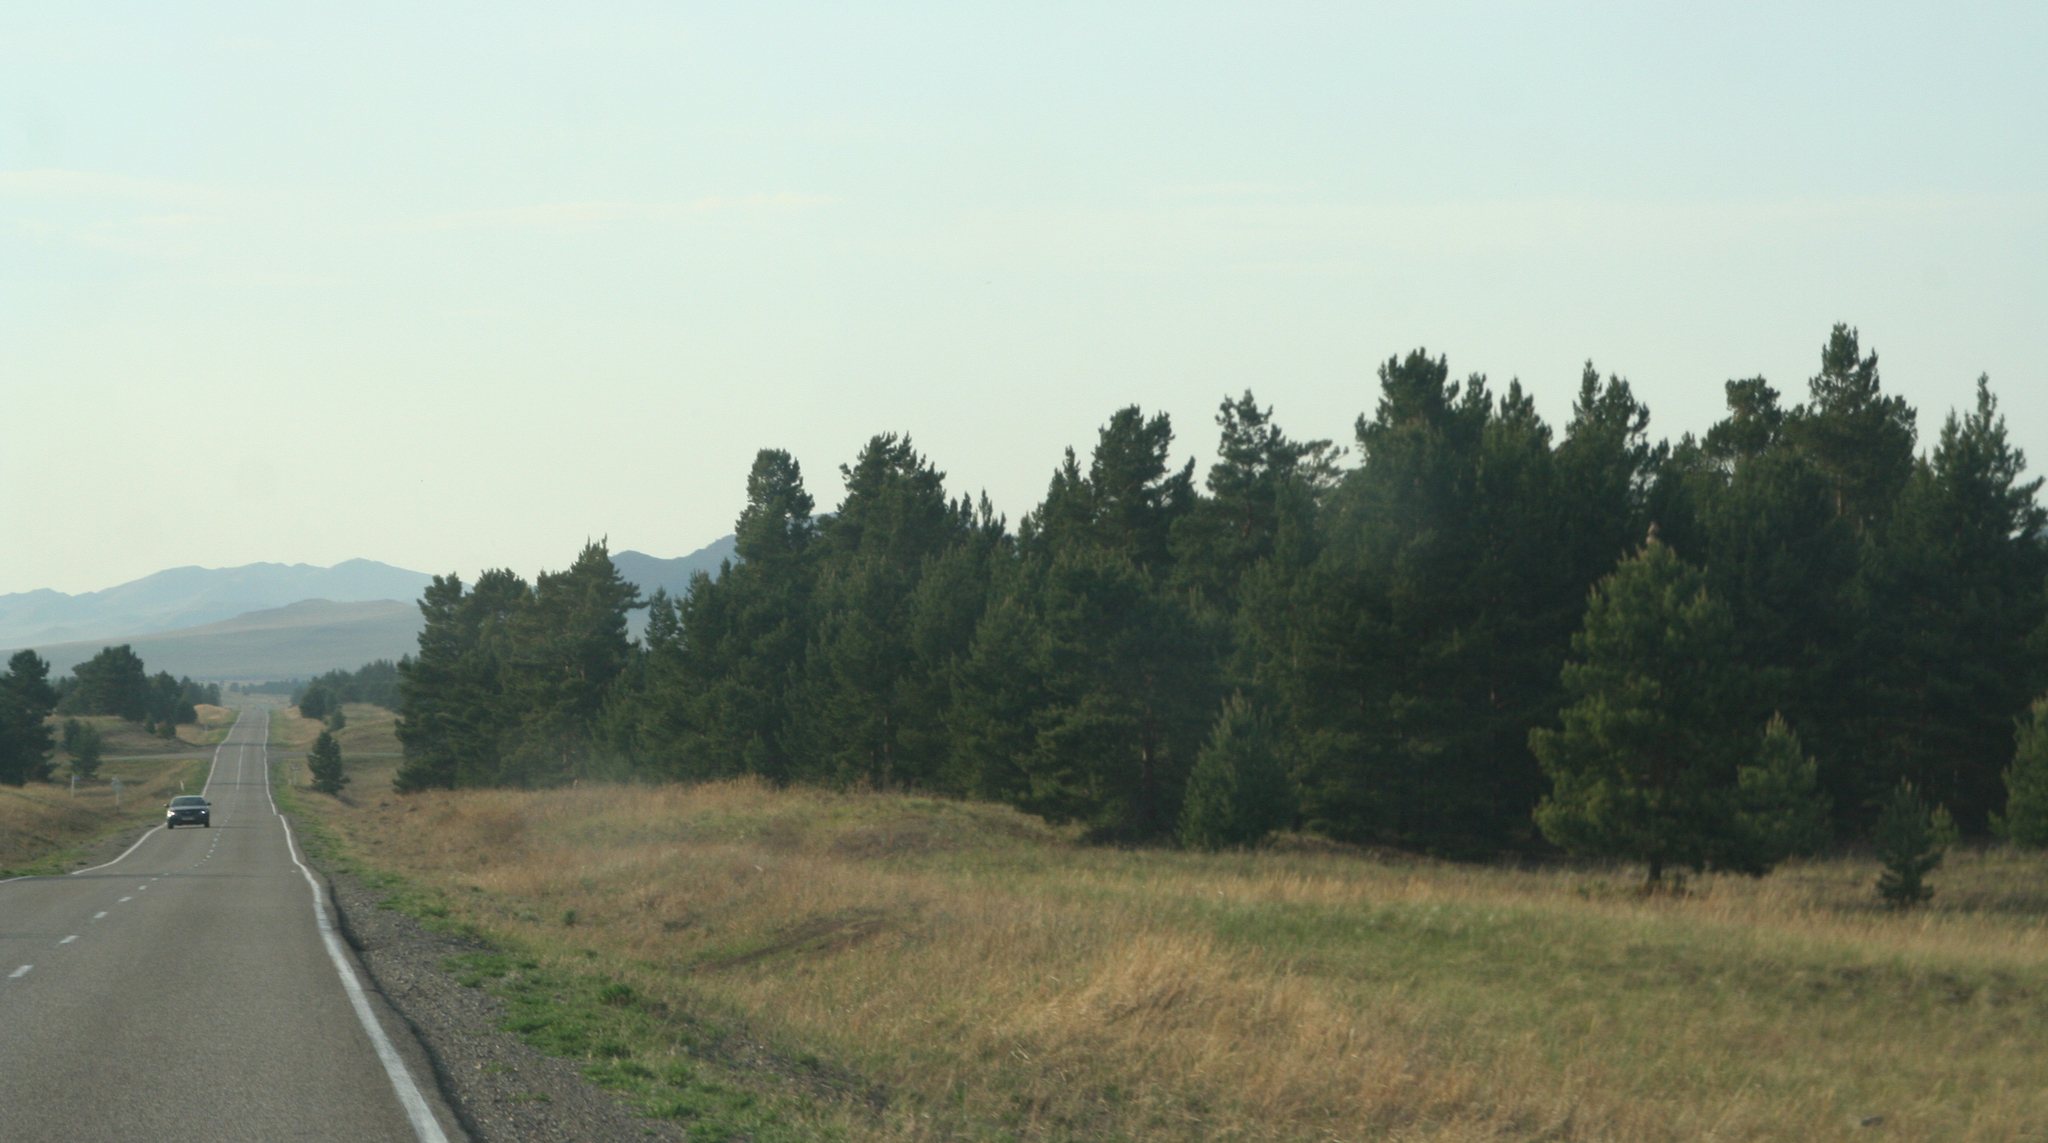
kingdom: Plantae
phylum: Tracheophyta
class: Pinopsida
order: Pinales
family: Pinaceae
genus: Pinus
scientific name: Pinus sylvestris
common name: Scots pine
